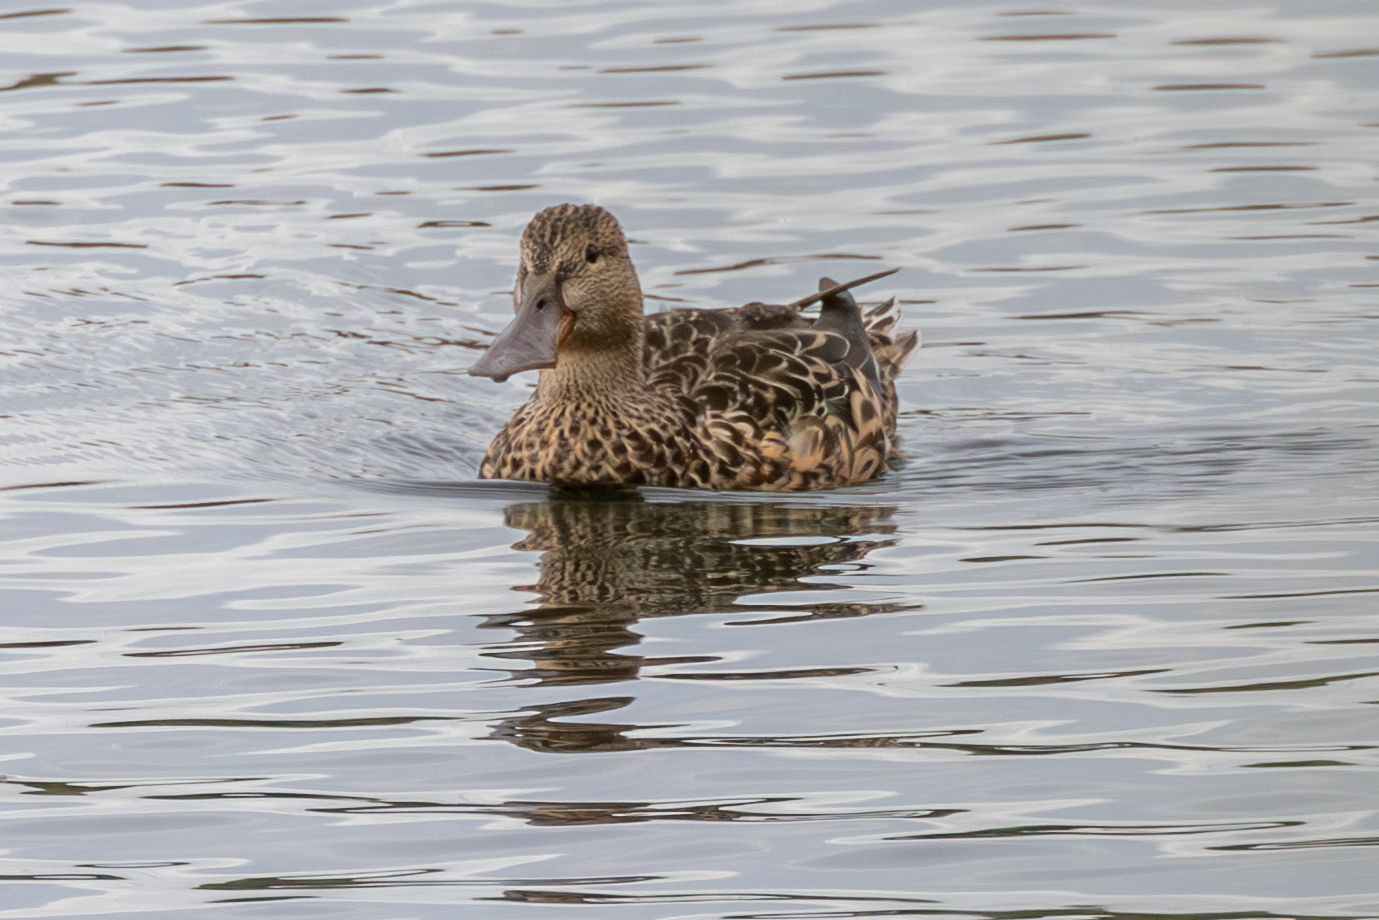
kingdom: Animalia
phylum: Chordata
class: Aves
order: Anseriformes
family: Anatidae
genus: Spatula
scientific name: Spatula clypeata
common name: Northern shoveler
